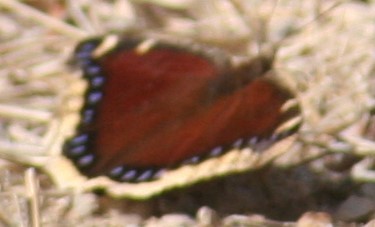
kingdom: Animalia
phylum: Arthropoda
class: Insecta
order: Lepidoptera
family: Nymphalidae
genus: Nymphalis
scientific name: Nymphalis antiopa
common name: Camberwell beauty
